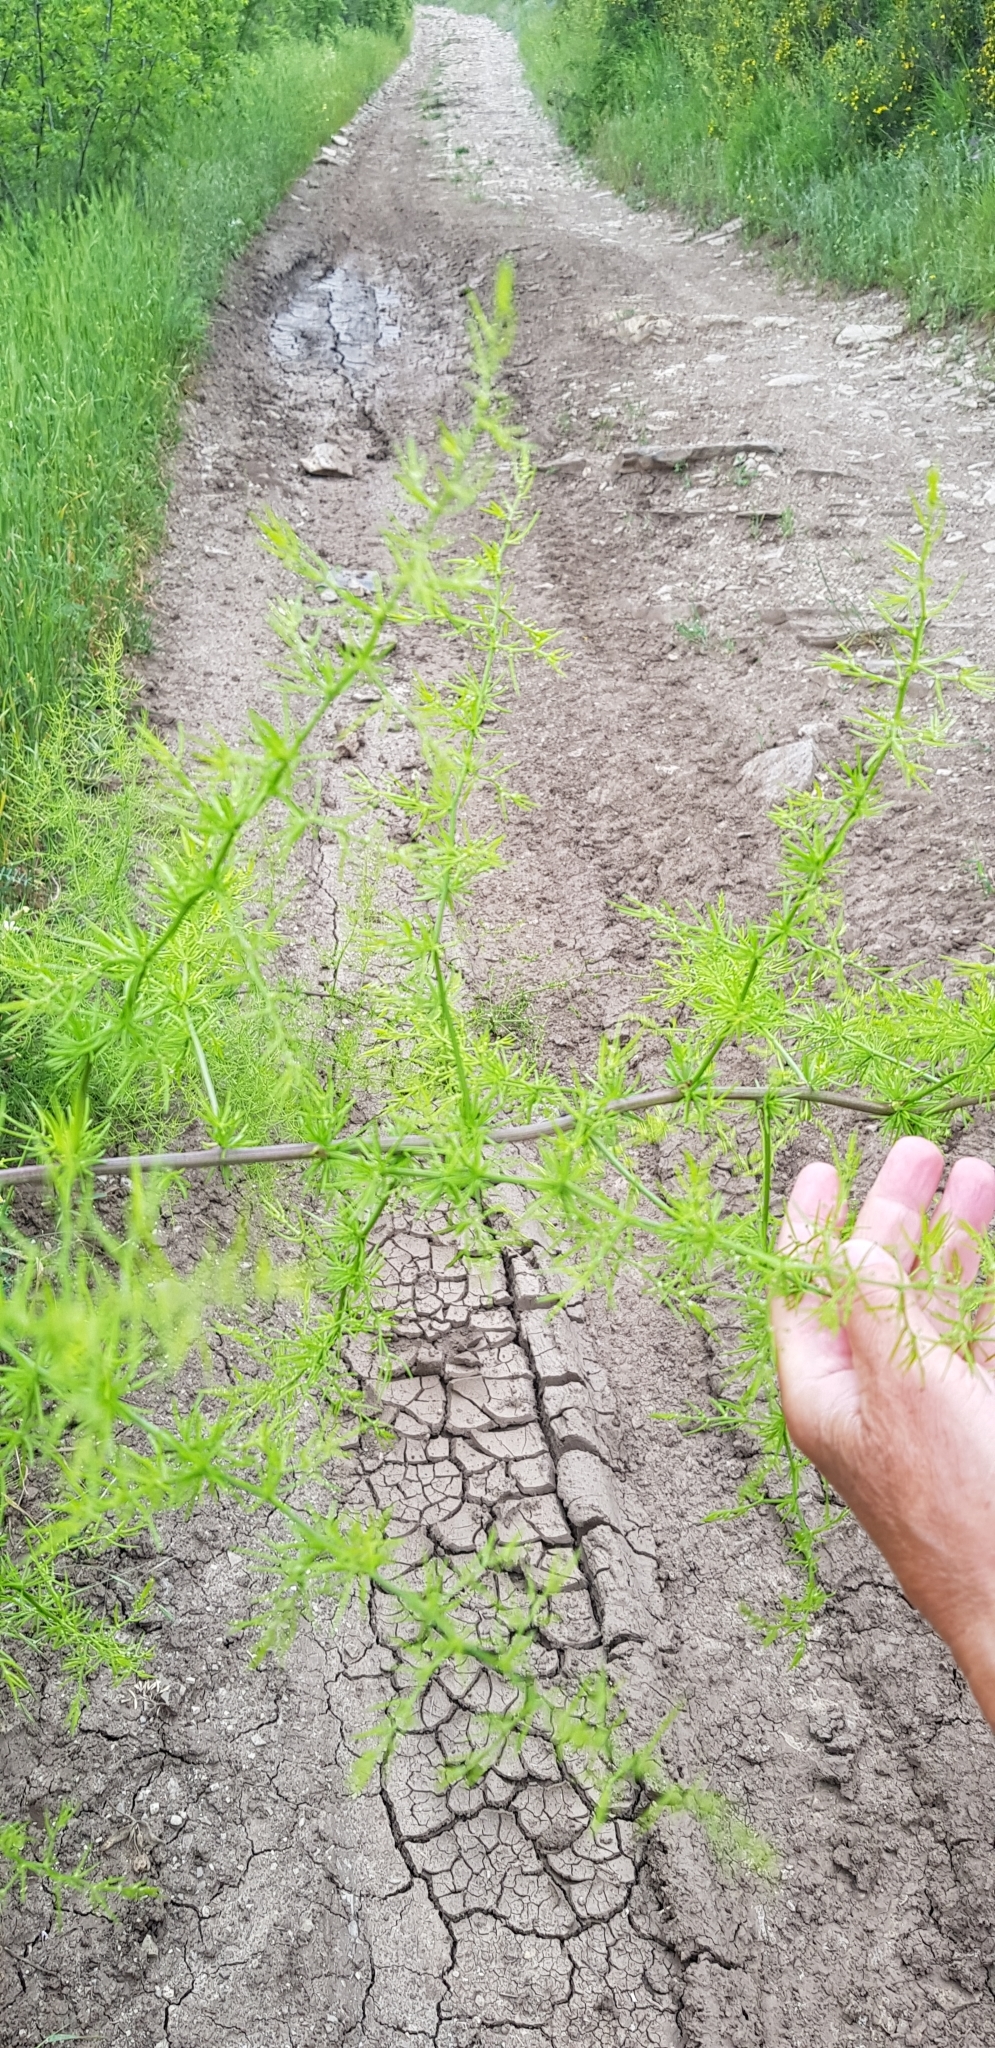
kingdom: Plantae
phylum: Tracheophyta
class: Liliopsida
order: Asparagales
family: Asparagaceae
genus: Asparagus
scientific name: Asparagus verticillatus
